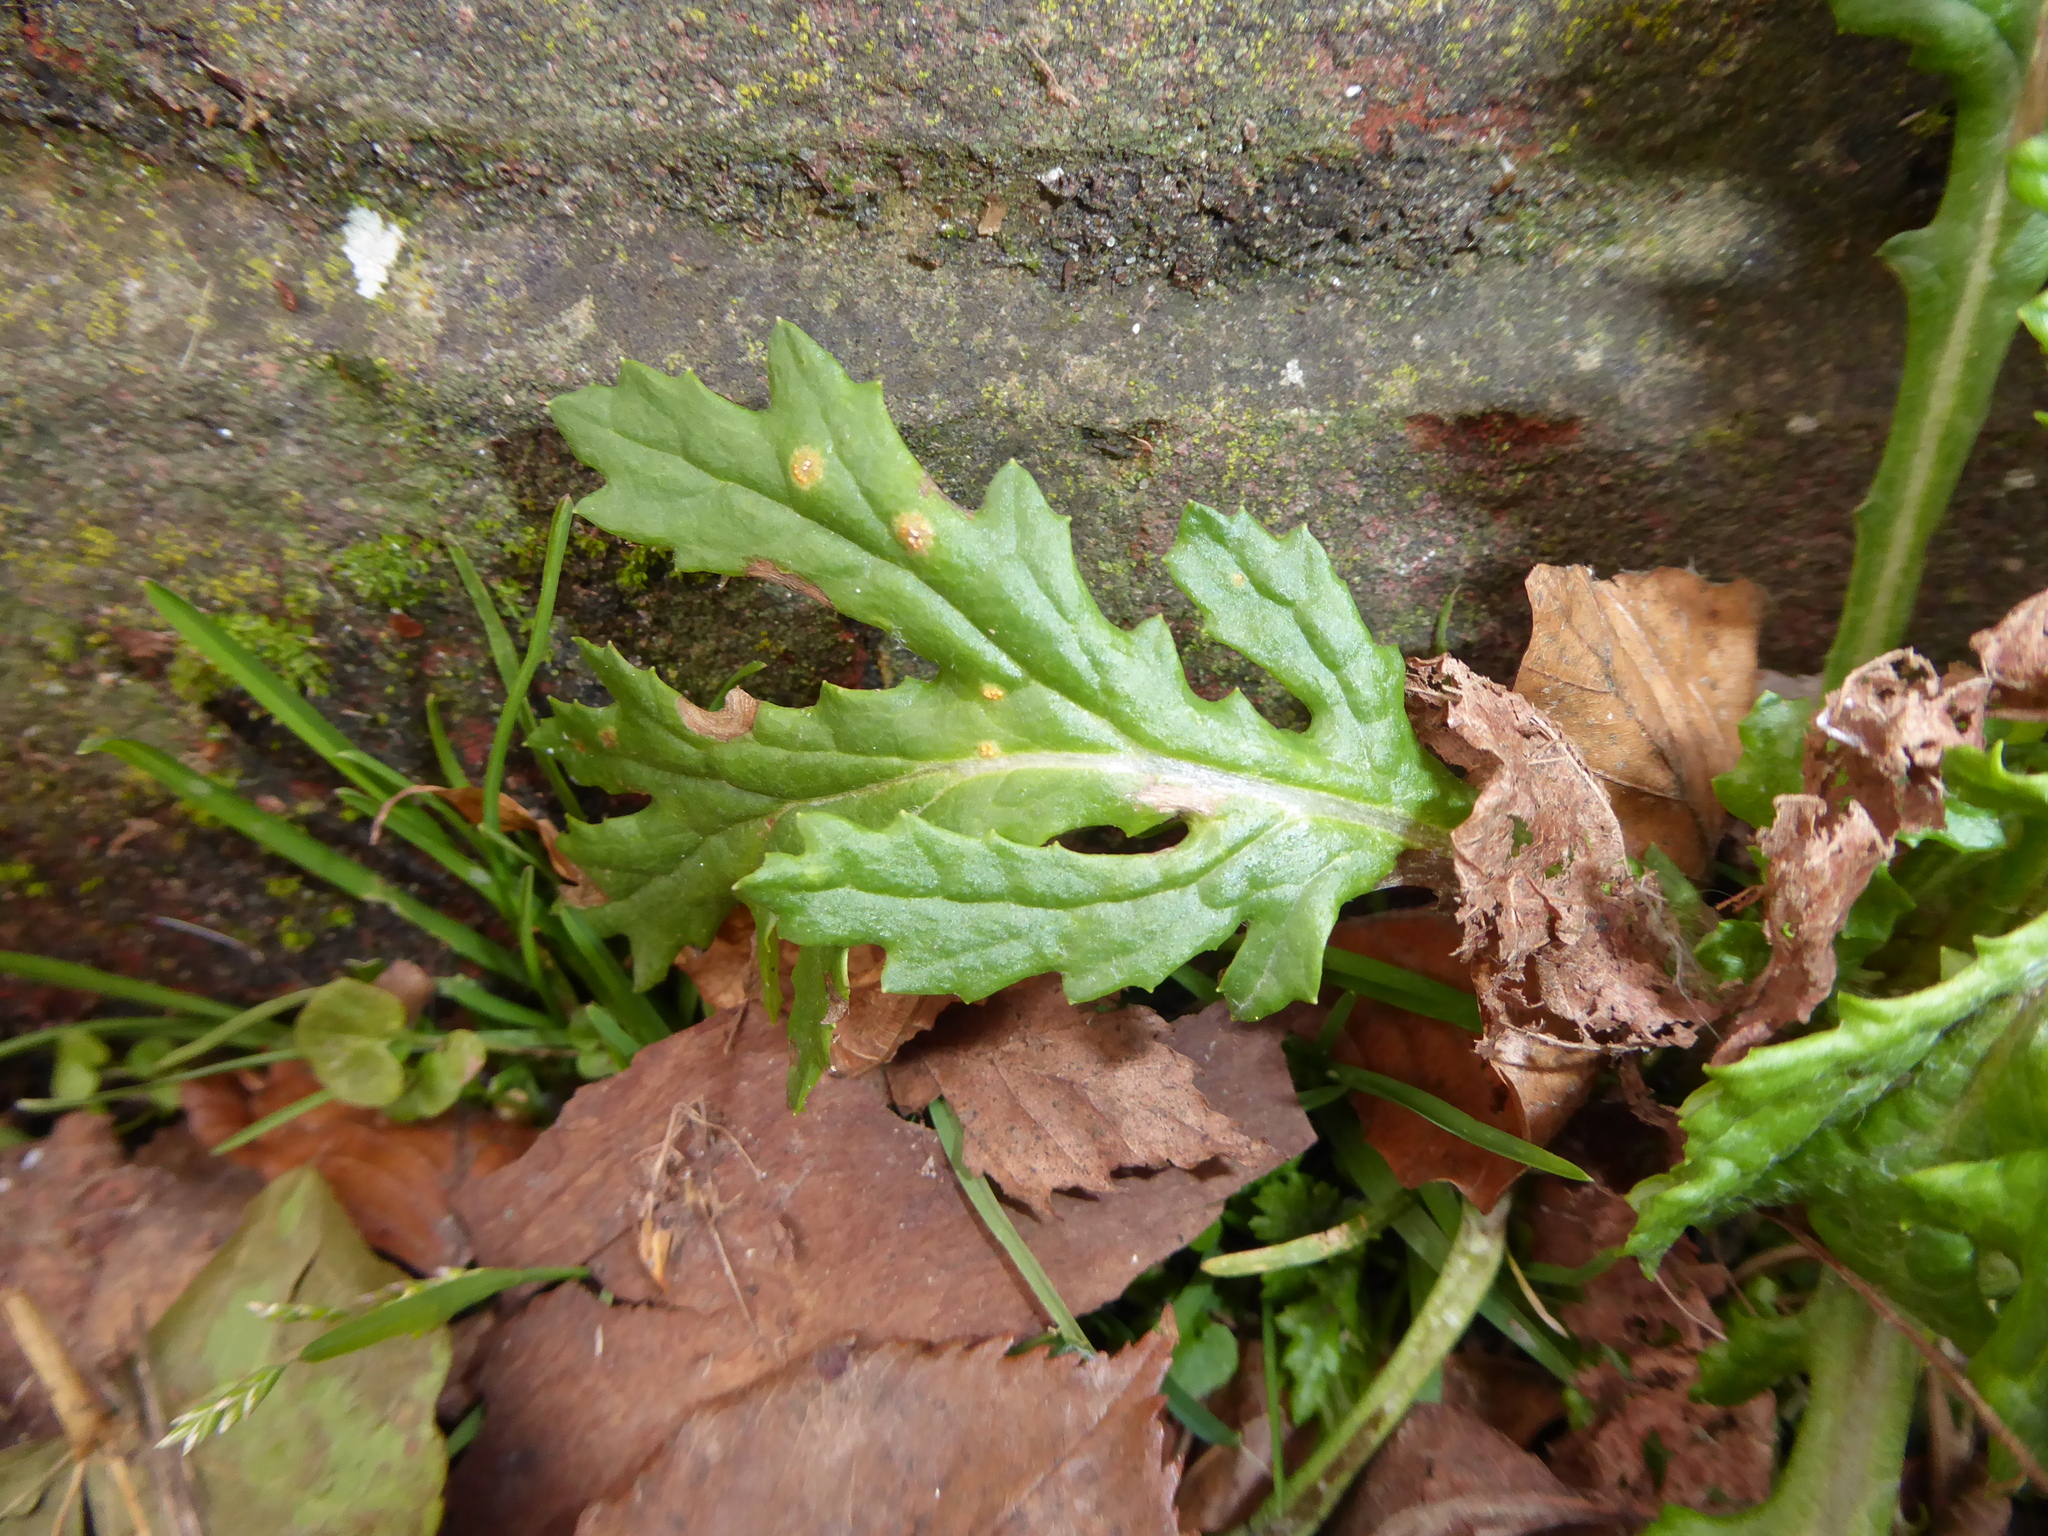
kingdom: Fungi
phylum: Basidiomycota
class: Pucciniomycetes
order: Pucciniales
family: Pucciniaceae
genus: Puccinia
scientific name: Puccinia lagenophorae
